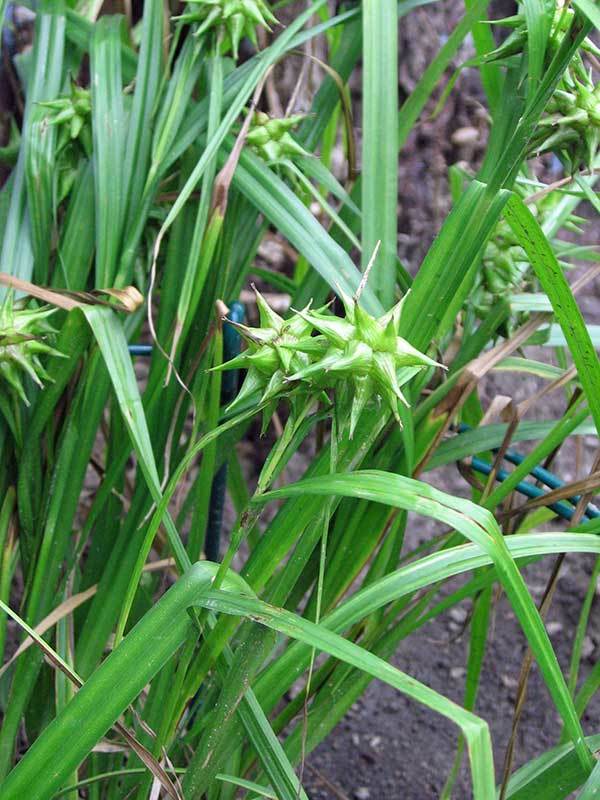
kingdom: Plantae
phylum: Tracheophyta
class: Liliopsida
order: Poales
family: Cyperaceae
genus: Carex
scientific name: Carex grayi
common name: Asa gray's sedge
